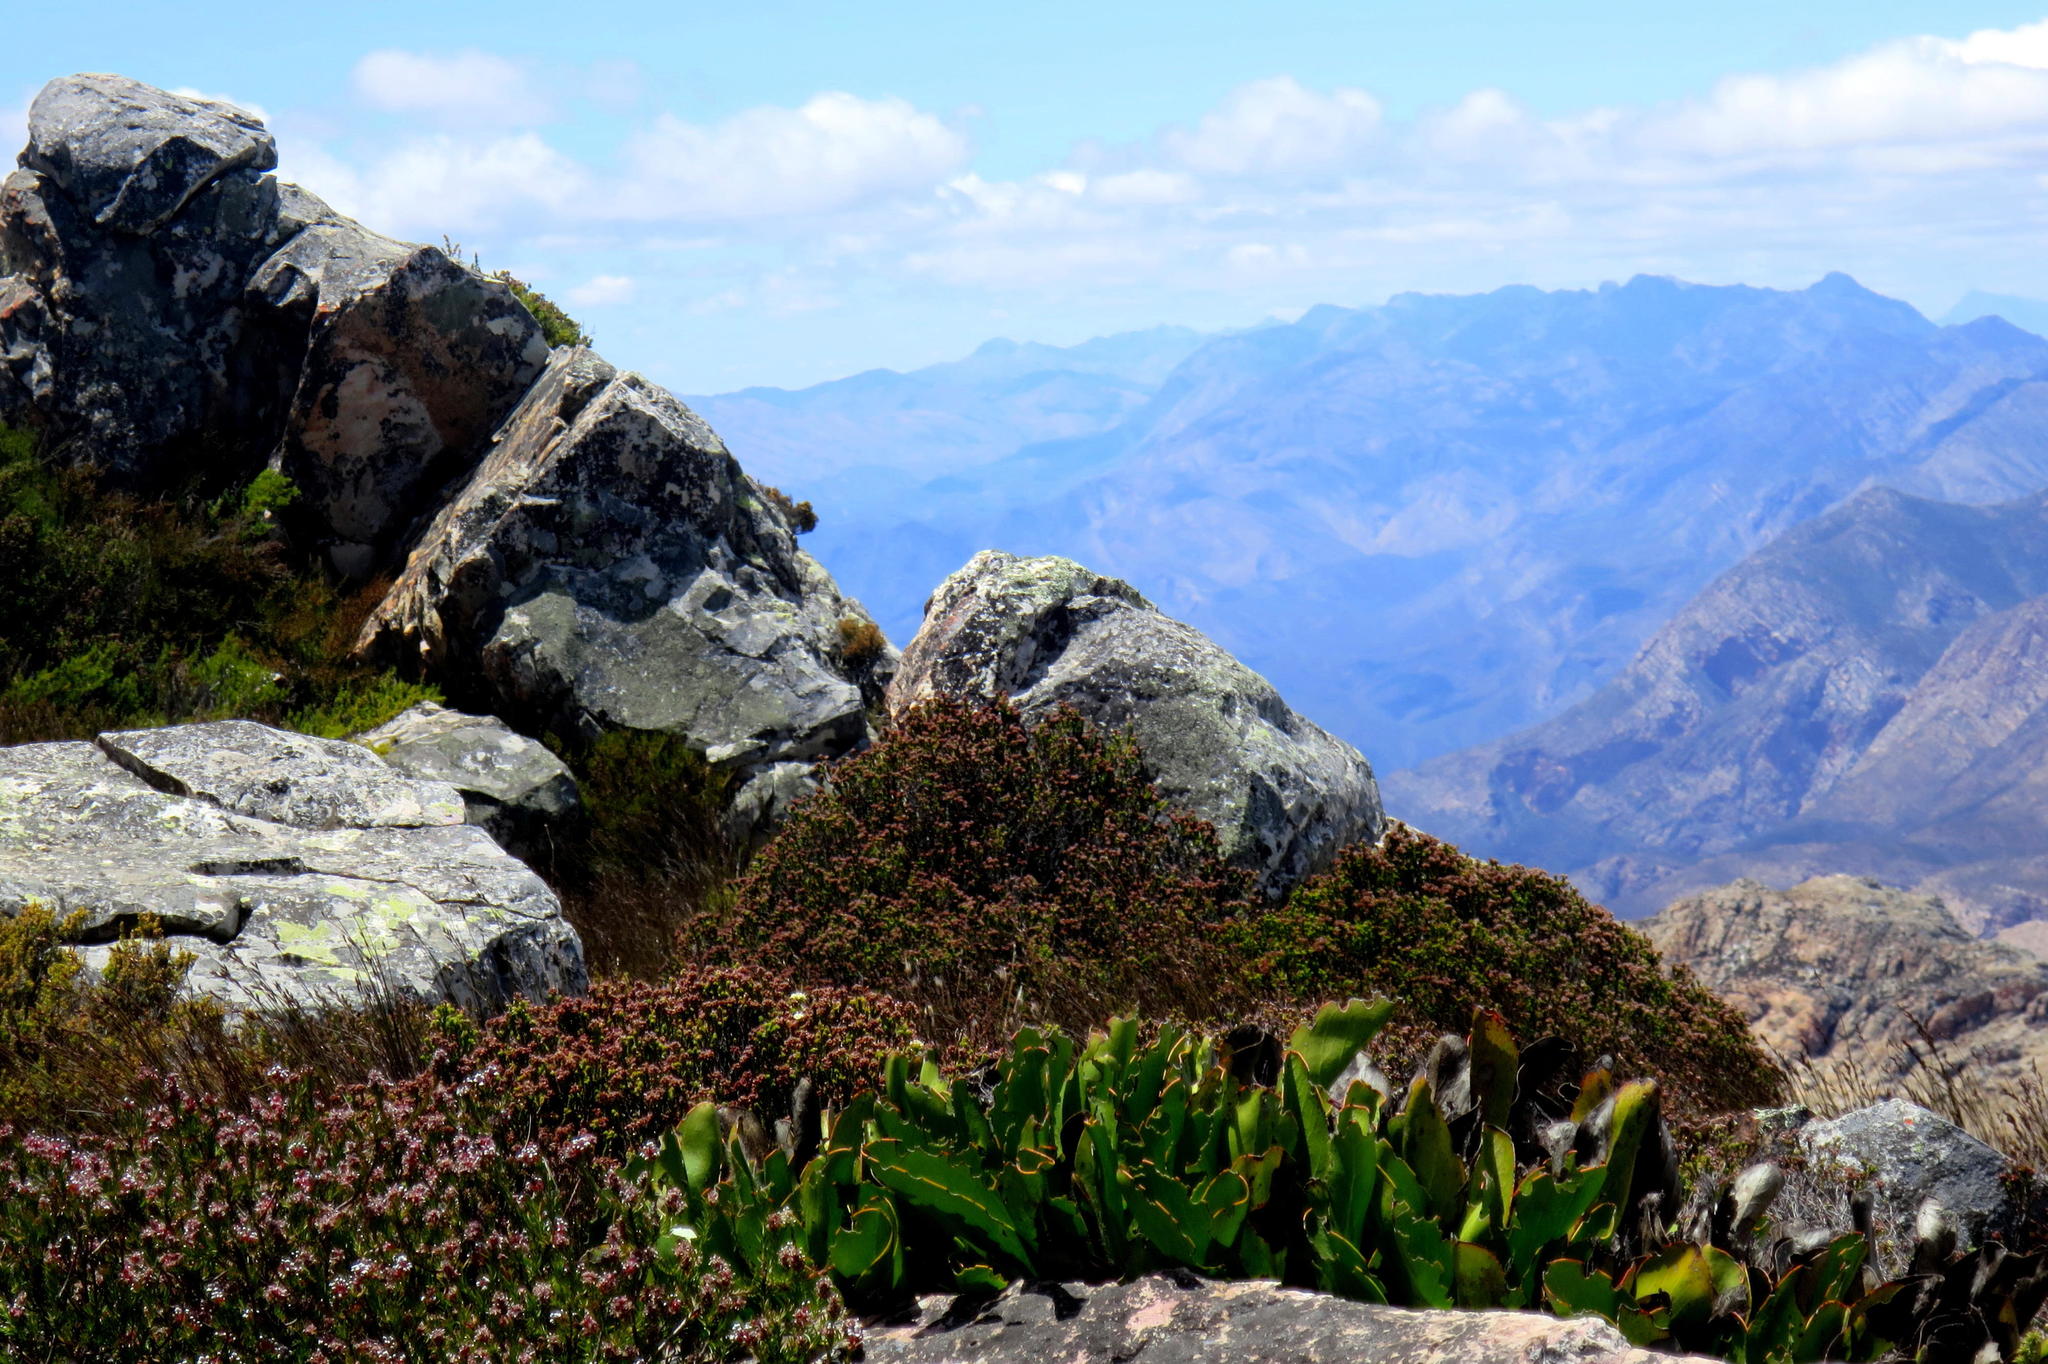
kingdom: Plantae
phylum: Tracheophyta
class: Magnoliopsida
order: Proteales
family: Proteaceae
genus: Protea
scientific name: Protea pruinosa
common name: Frosted sugarbush
